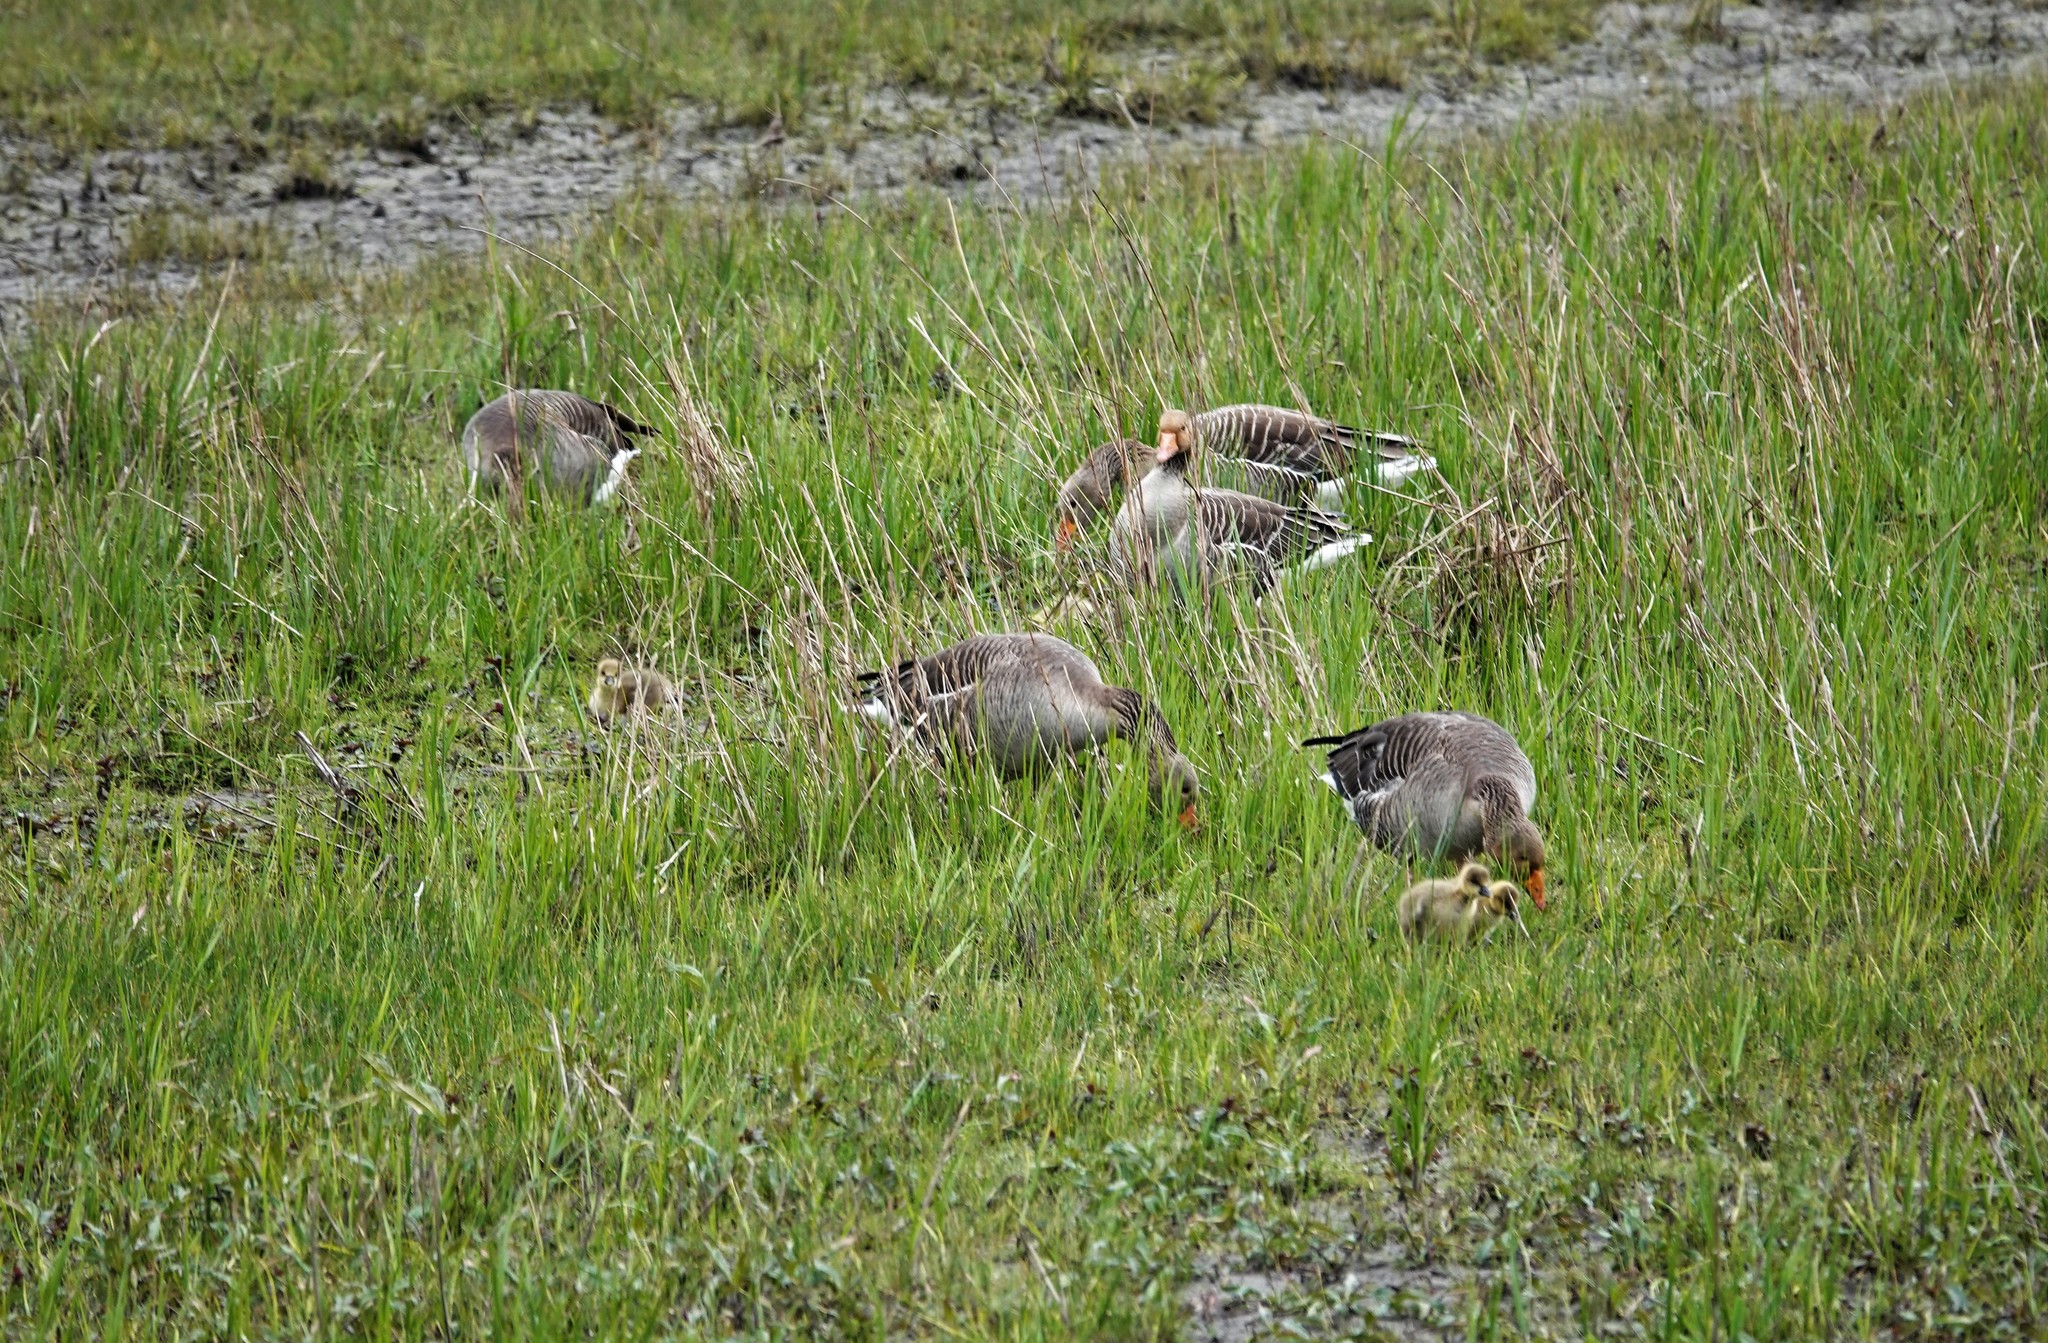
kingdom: Animalia
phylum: Chordata
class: Aves
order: Anseriformes
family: Anatidae
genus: Anser
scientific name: Anser anser
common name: Greylag goose
